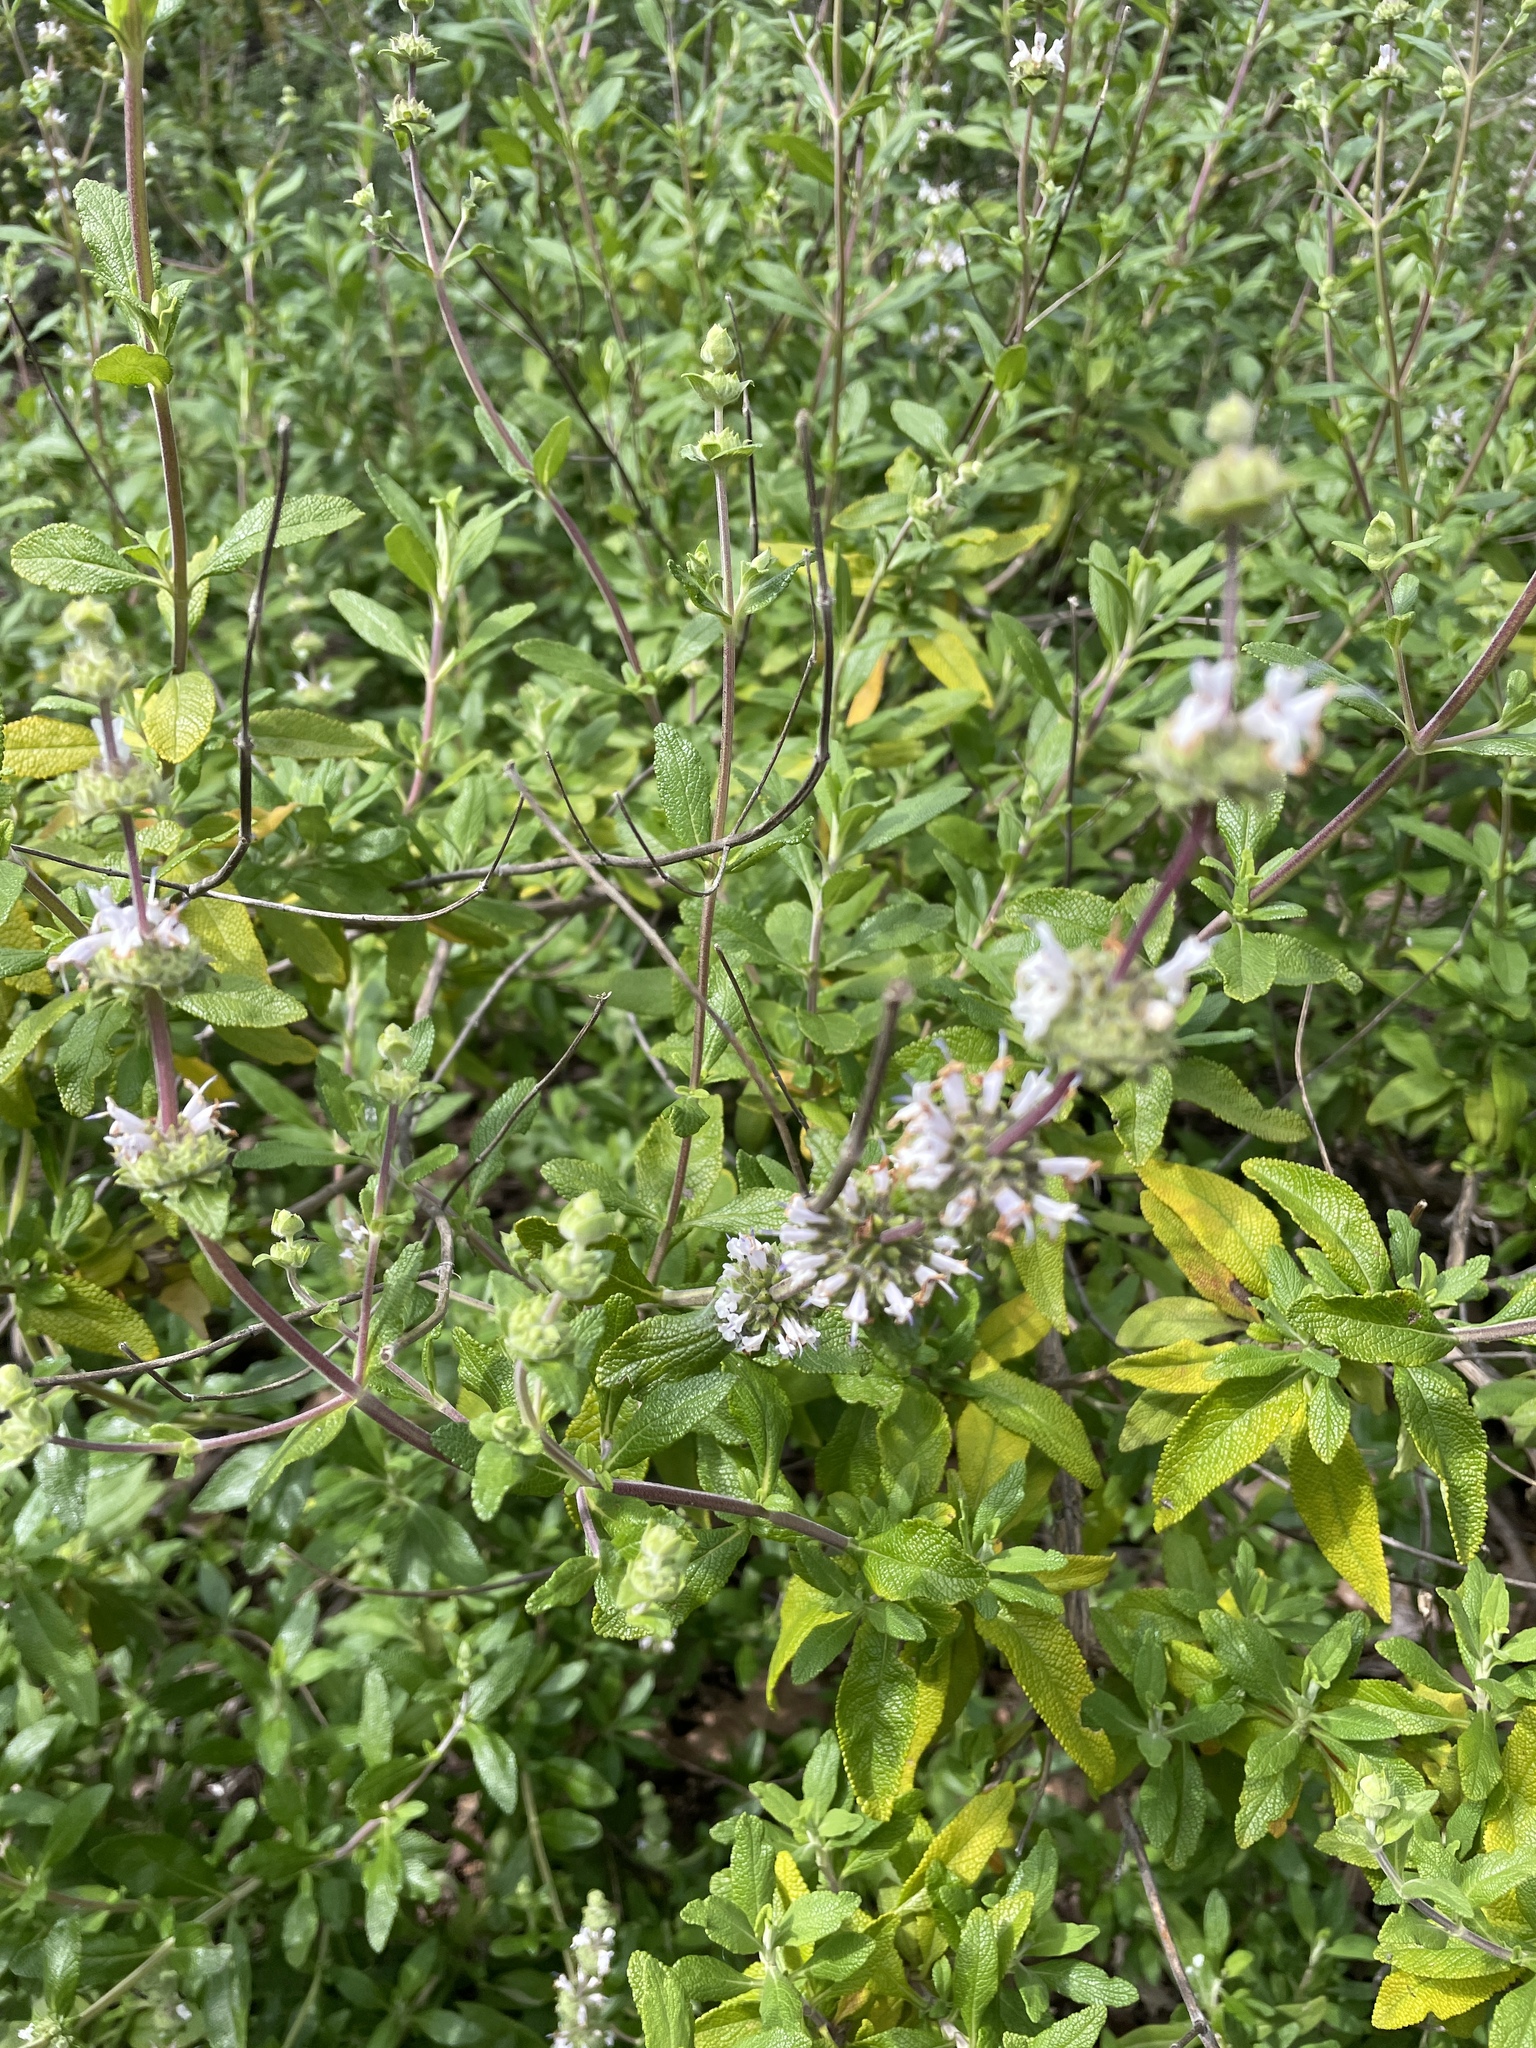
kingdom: Plantae
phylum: Tracheophyta
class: Magnoliopsida
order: Lamiales
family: Lamiaceae
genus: Salvia
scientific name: Salvia mellifera
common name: Black sage
